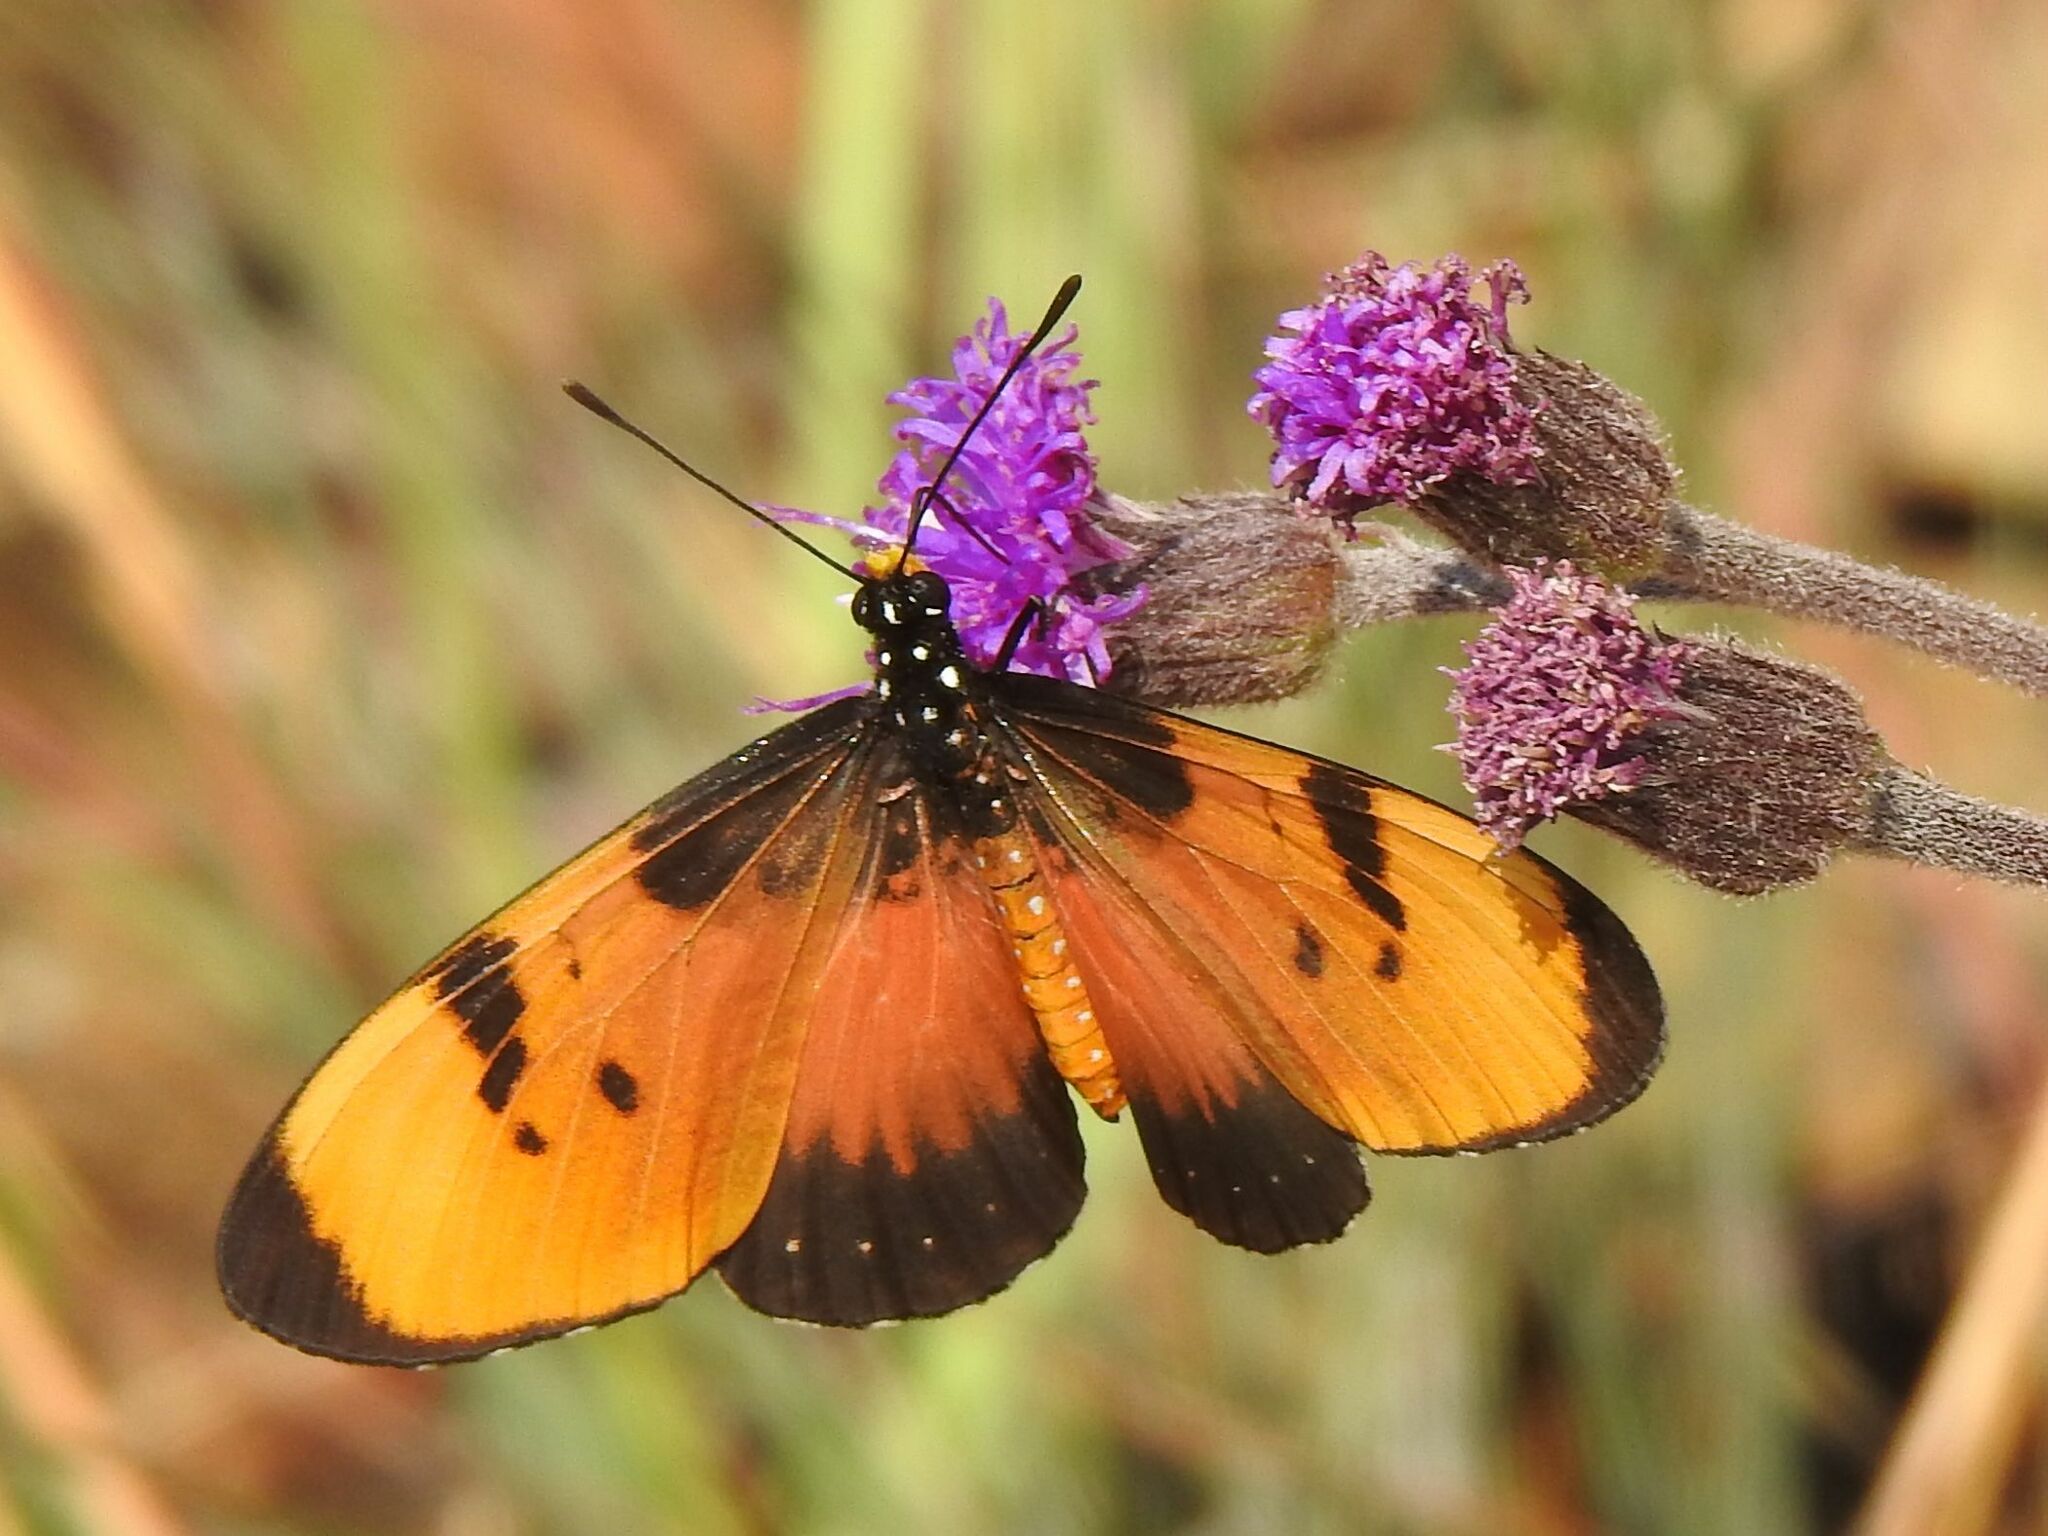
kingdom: Animalia
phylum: Arthropoda
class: Insecta
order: Lepidoptera
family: Nymphalidae
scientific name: Nymphalidae
